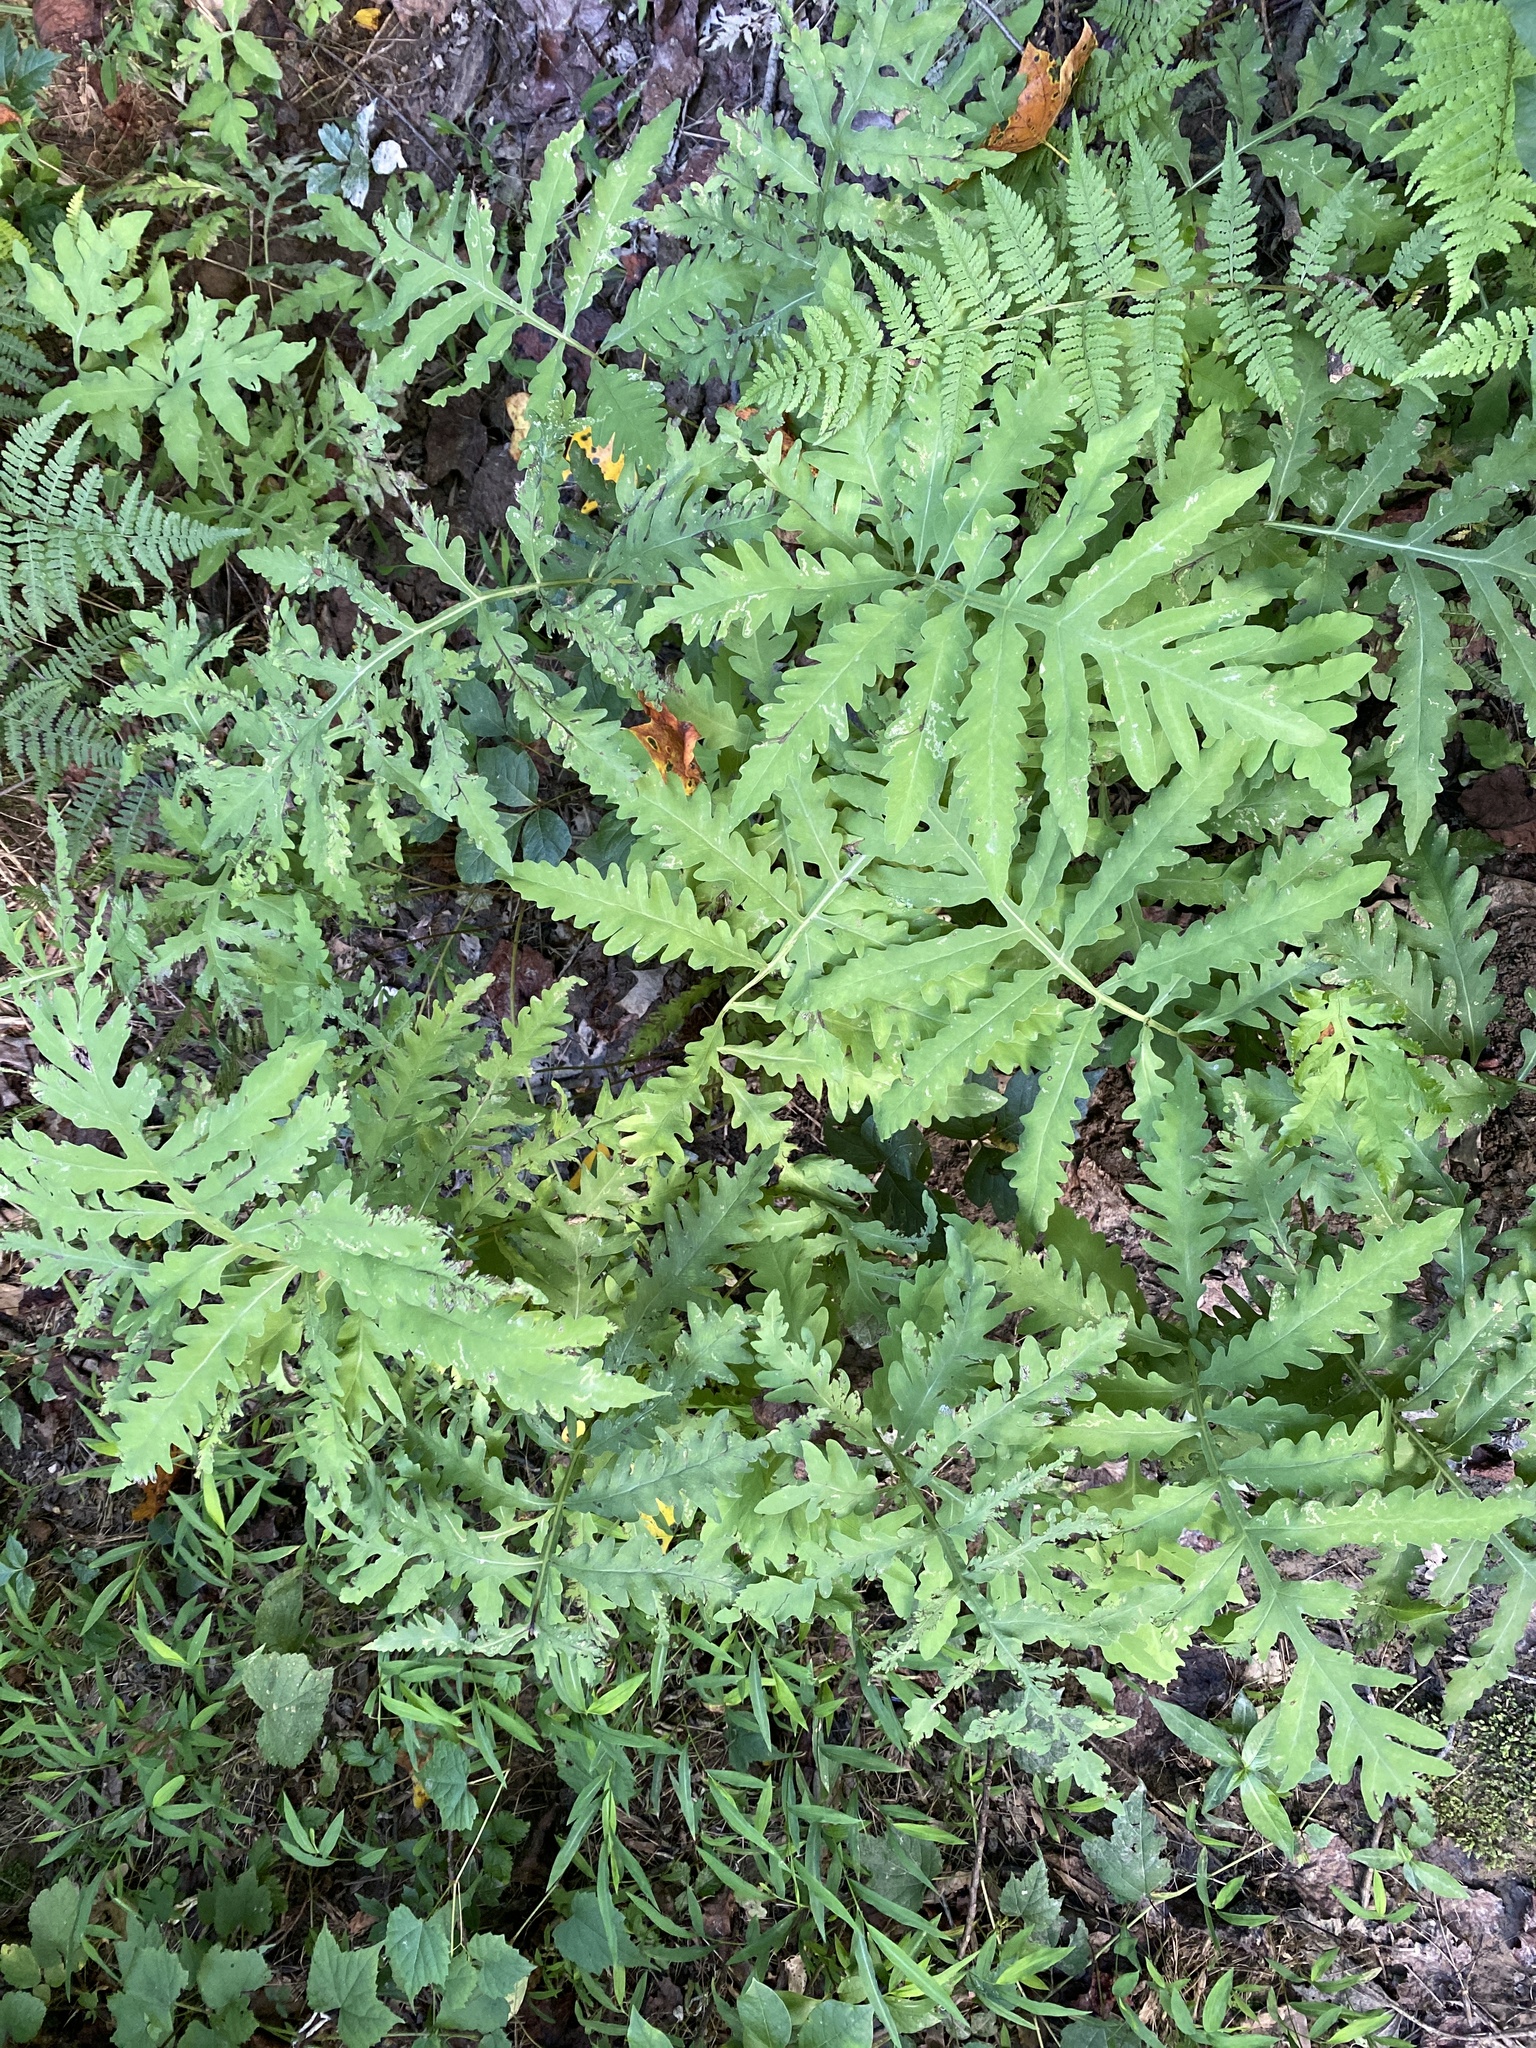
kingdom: Plantae
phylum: Tracheophyta
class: Polypodiopsida
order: Polypodiales
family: Onocleaceae
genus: Onoclea
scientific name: Onoclea sensibilis
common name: Sensitive fern
